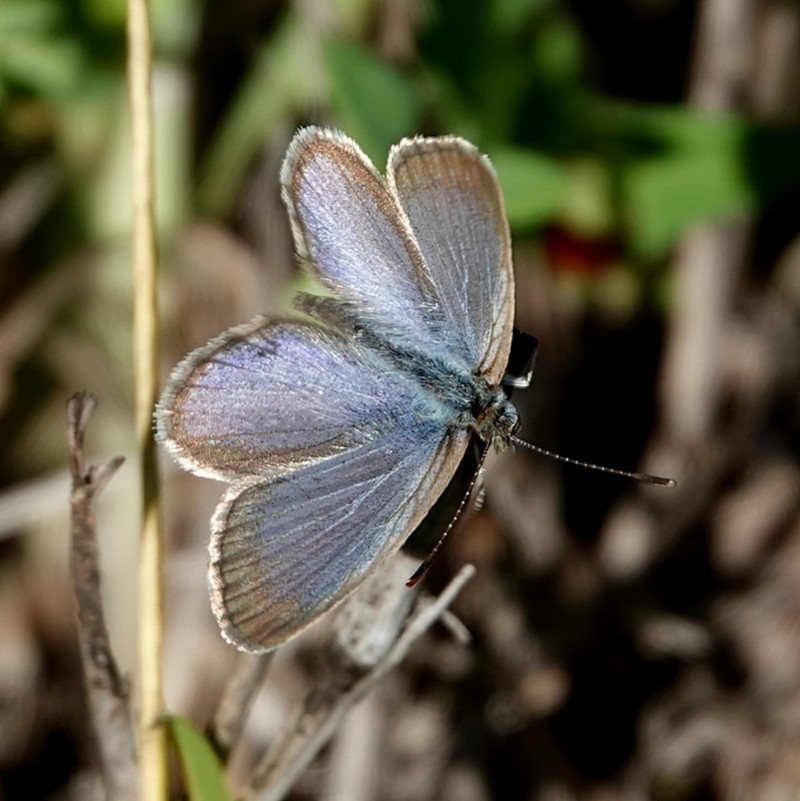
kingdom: Animalia
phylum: Arthropoda
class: Insecta
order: Lepidoptera
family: Lycaenidae
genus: Zizina
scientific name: Zizina labradus
